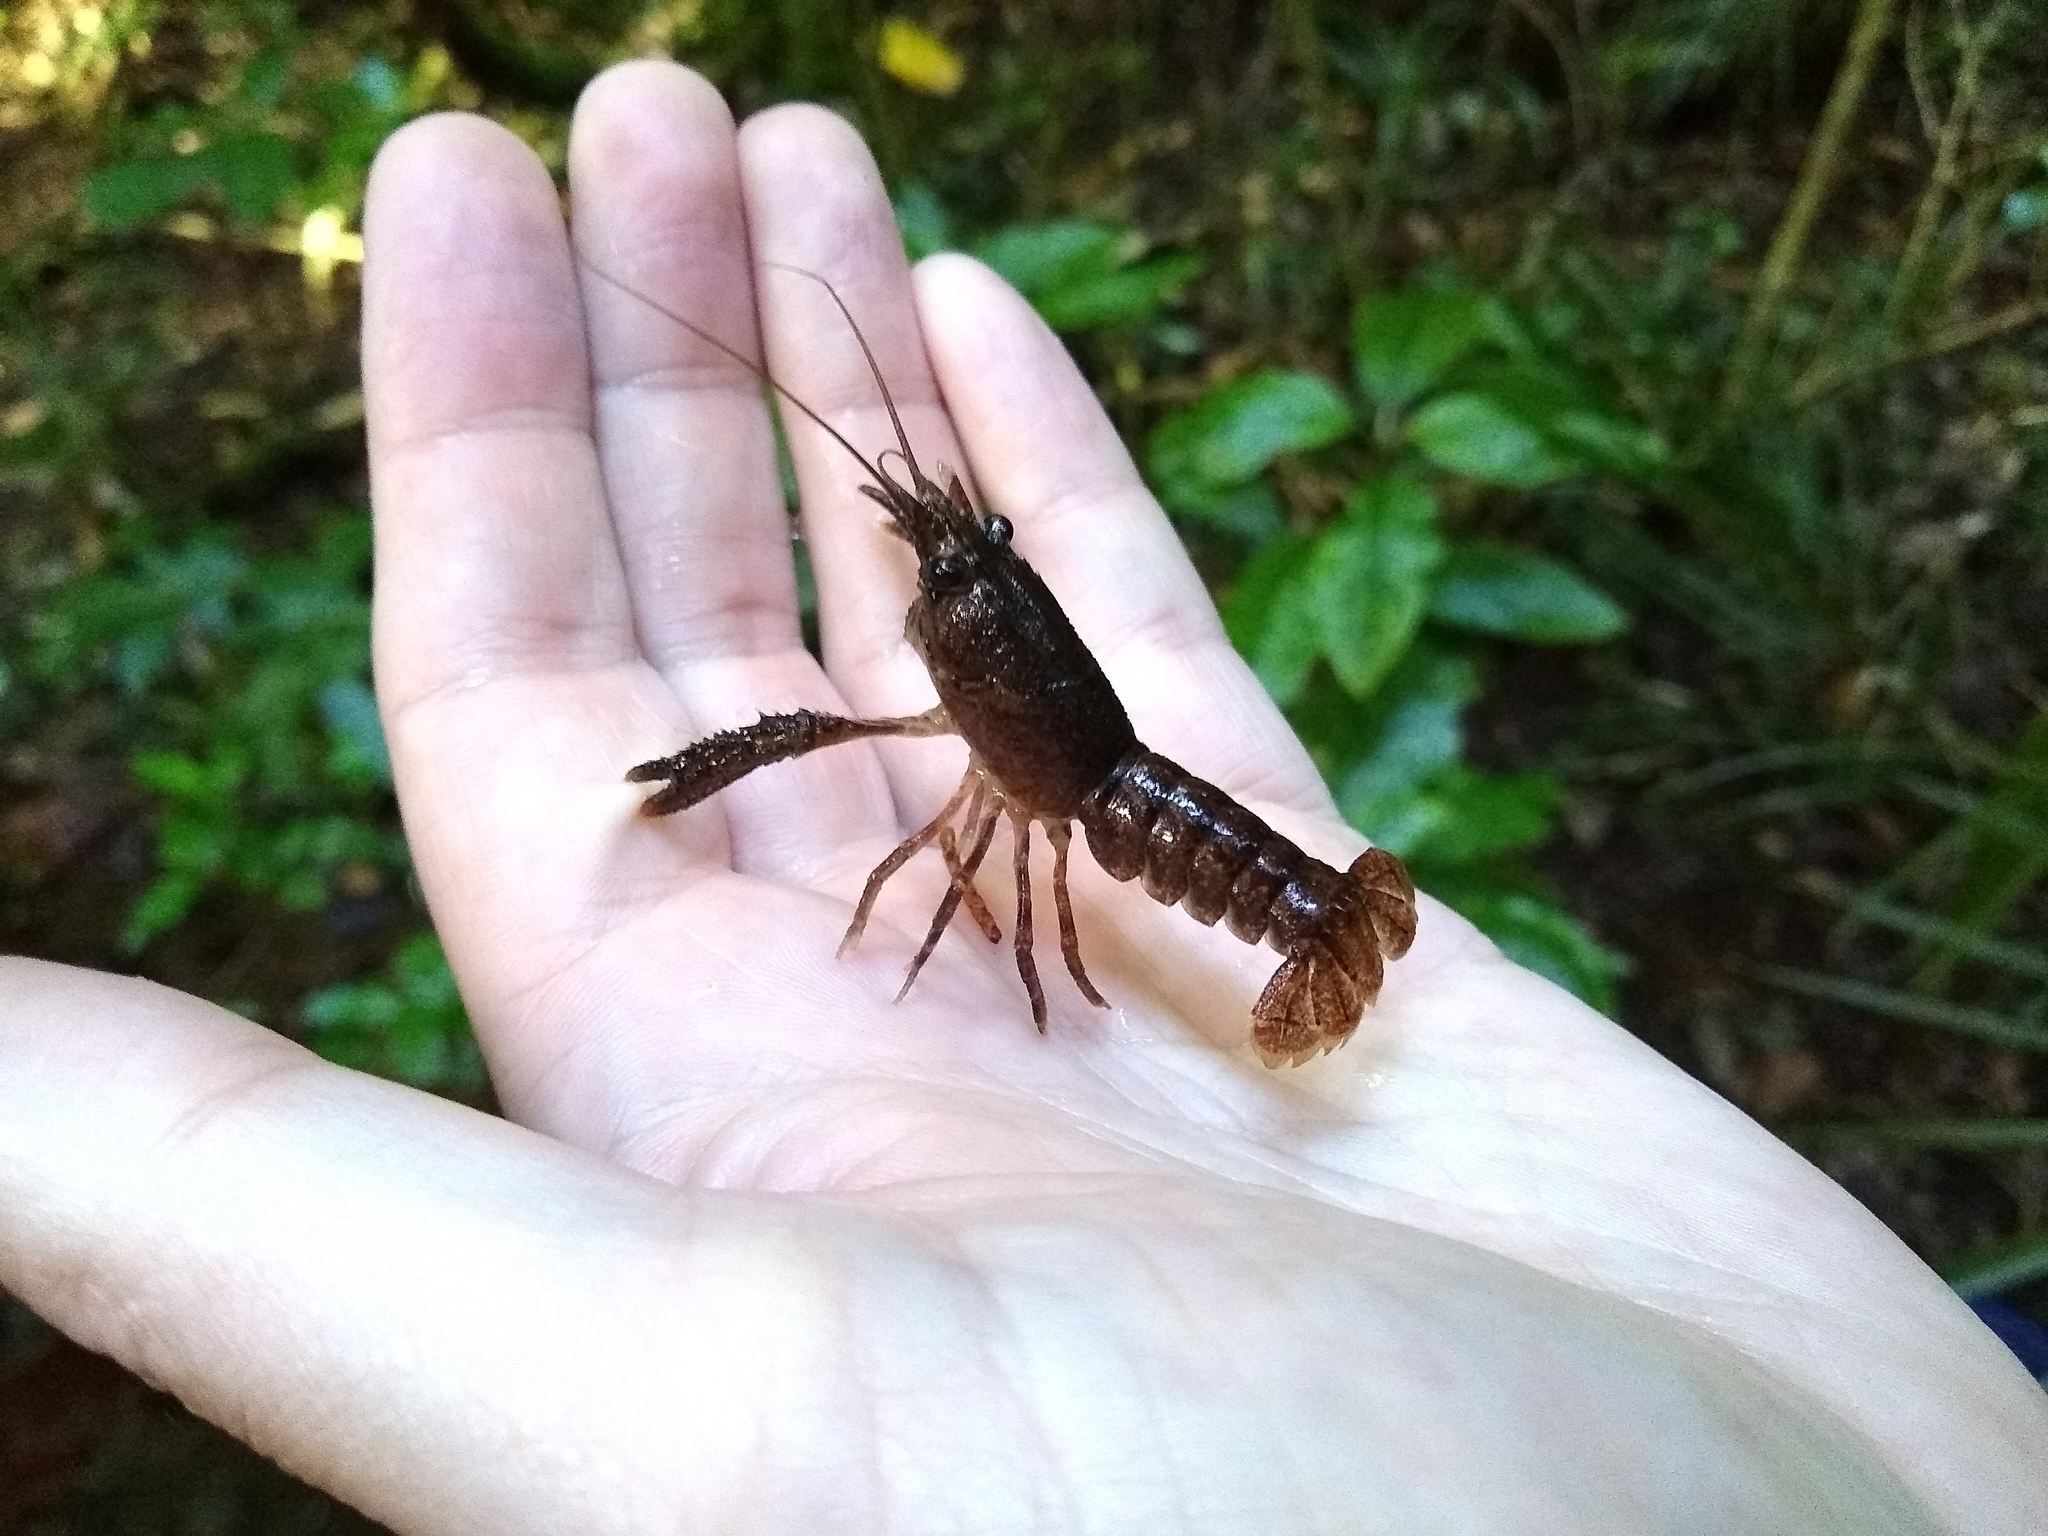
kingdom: Animalia
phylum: Arthropoda
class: Malacostraca
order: Decapoda
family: Parastacidae
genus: Paranephrops
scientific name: Paranephrops planifrons
